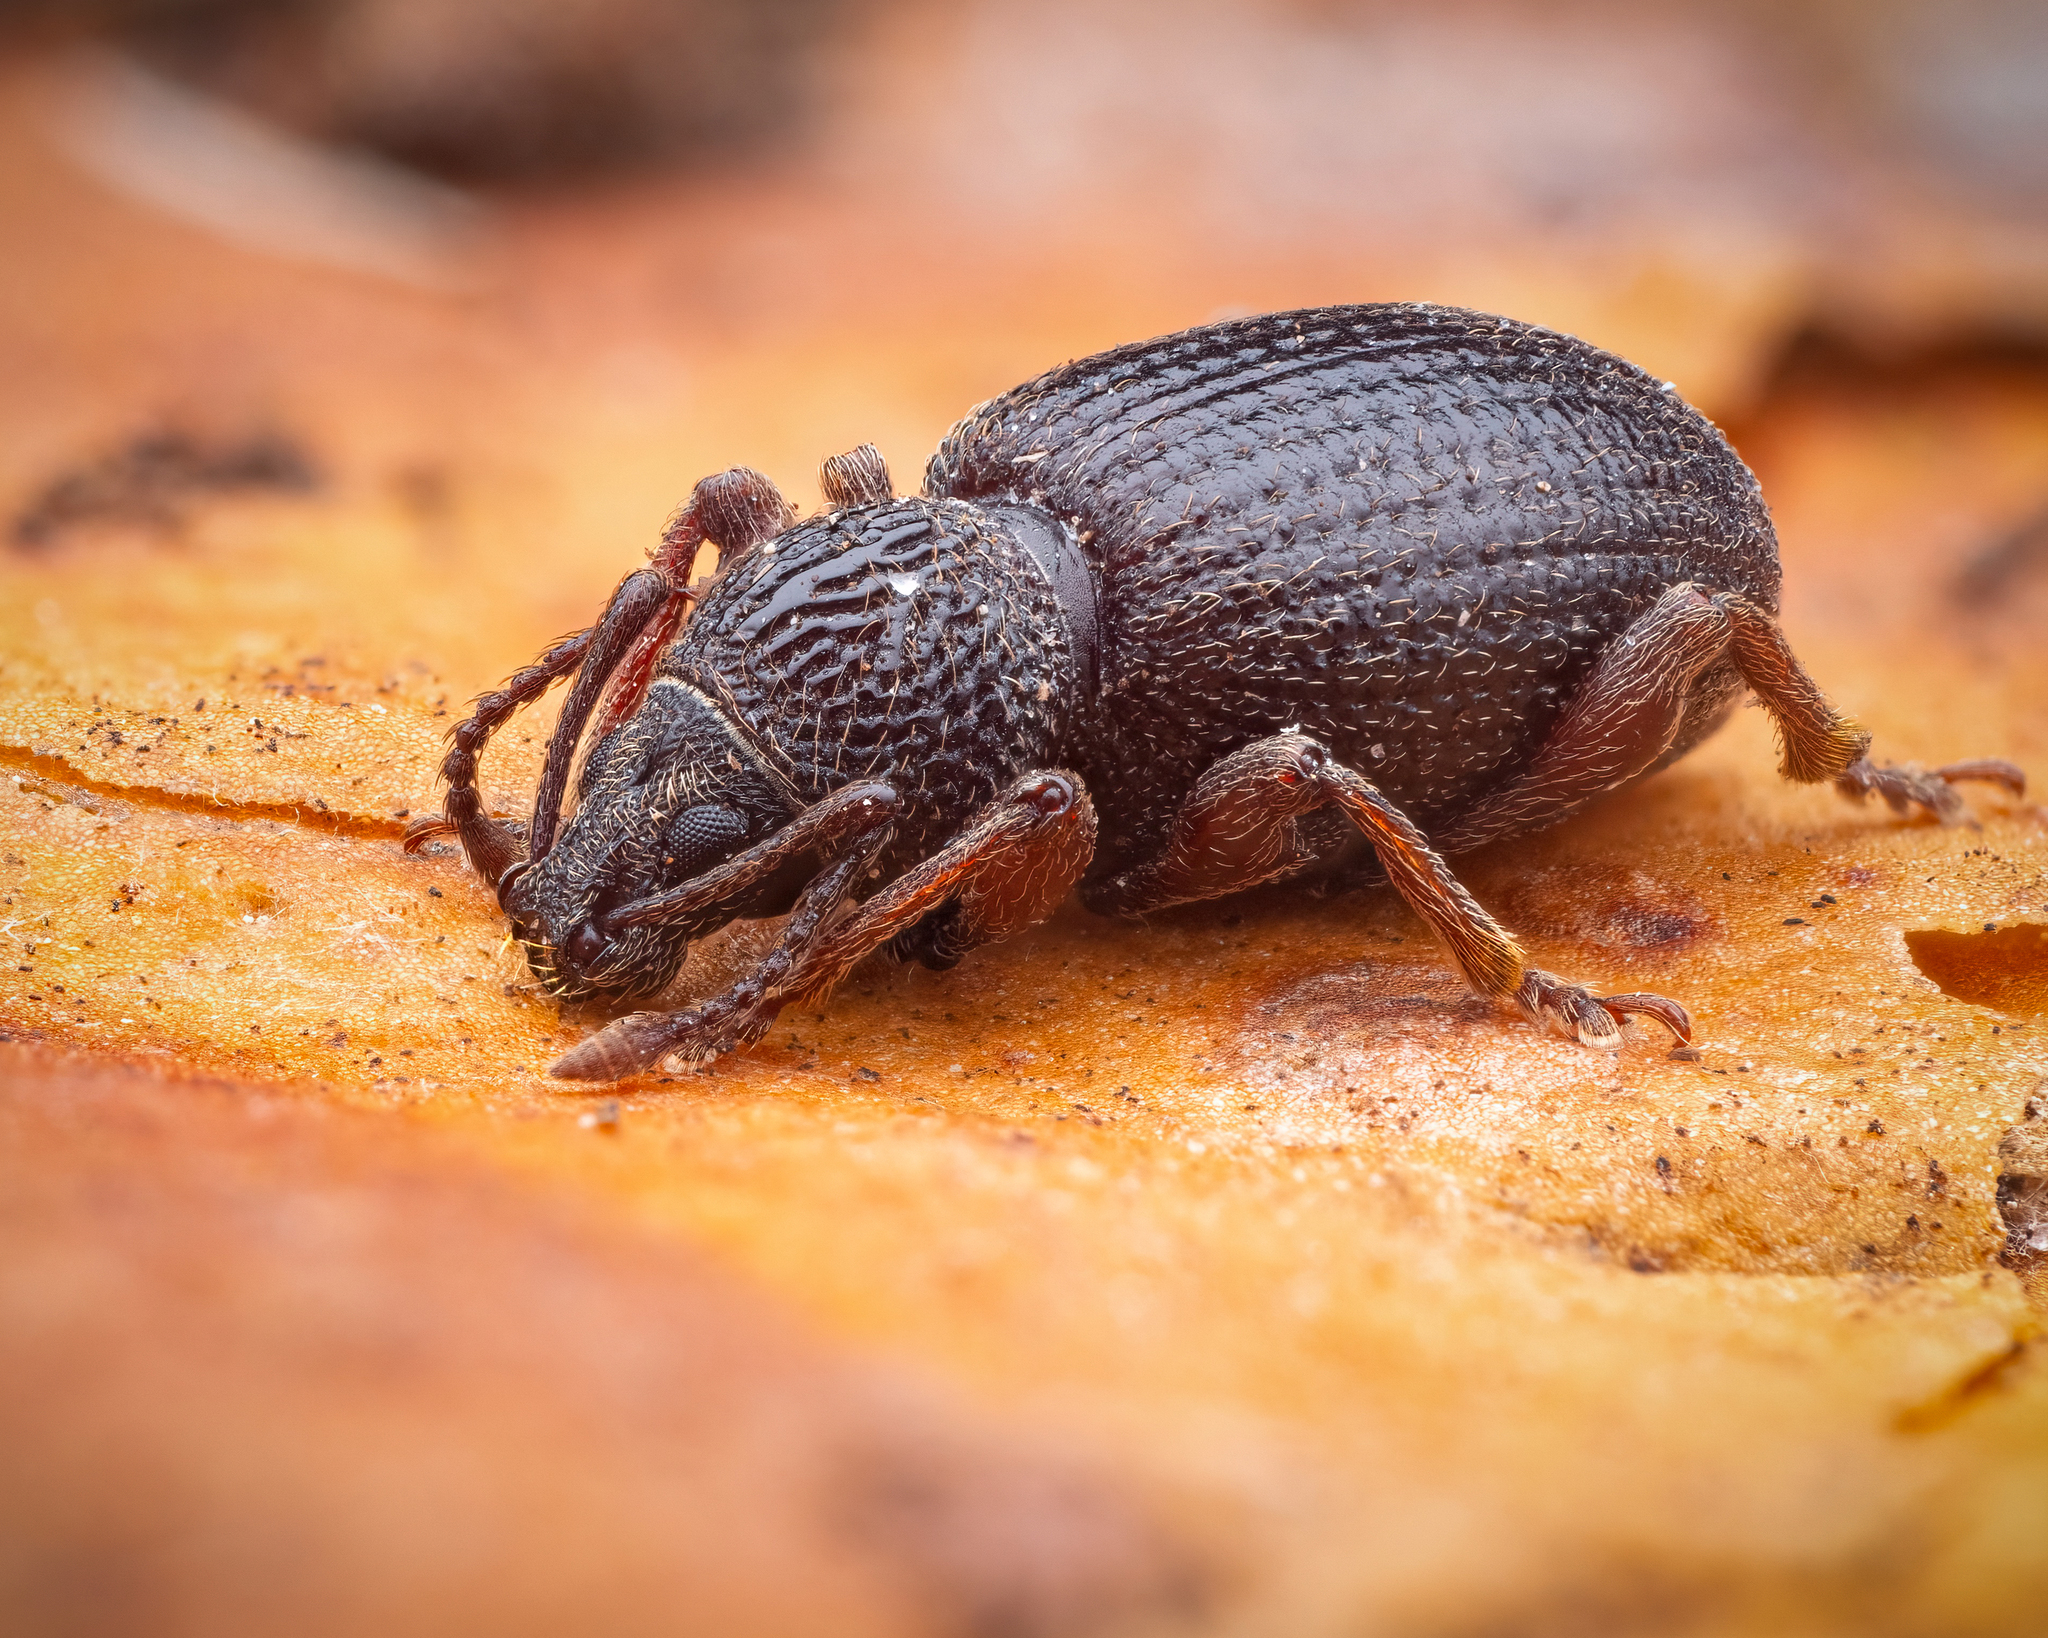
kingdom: Animalia
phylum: Arthropoda
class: Insecta
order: Coleoptera
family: Curculionidae
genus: Otiorhynchus
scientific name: Otiorhynchus ovatus
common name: Strawberry root weevil
